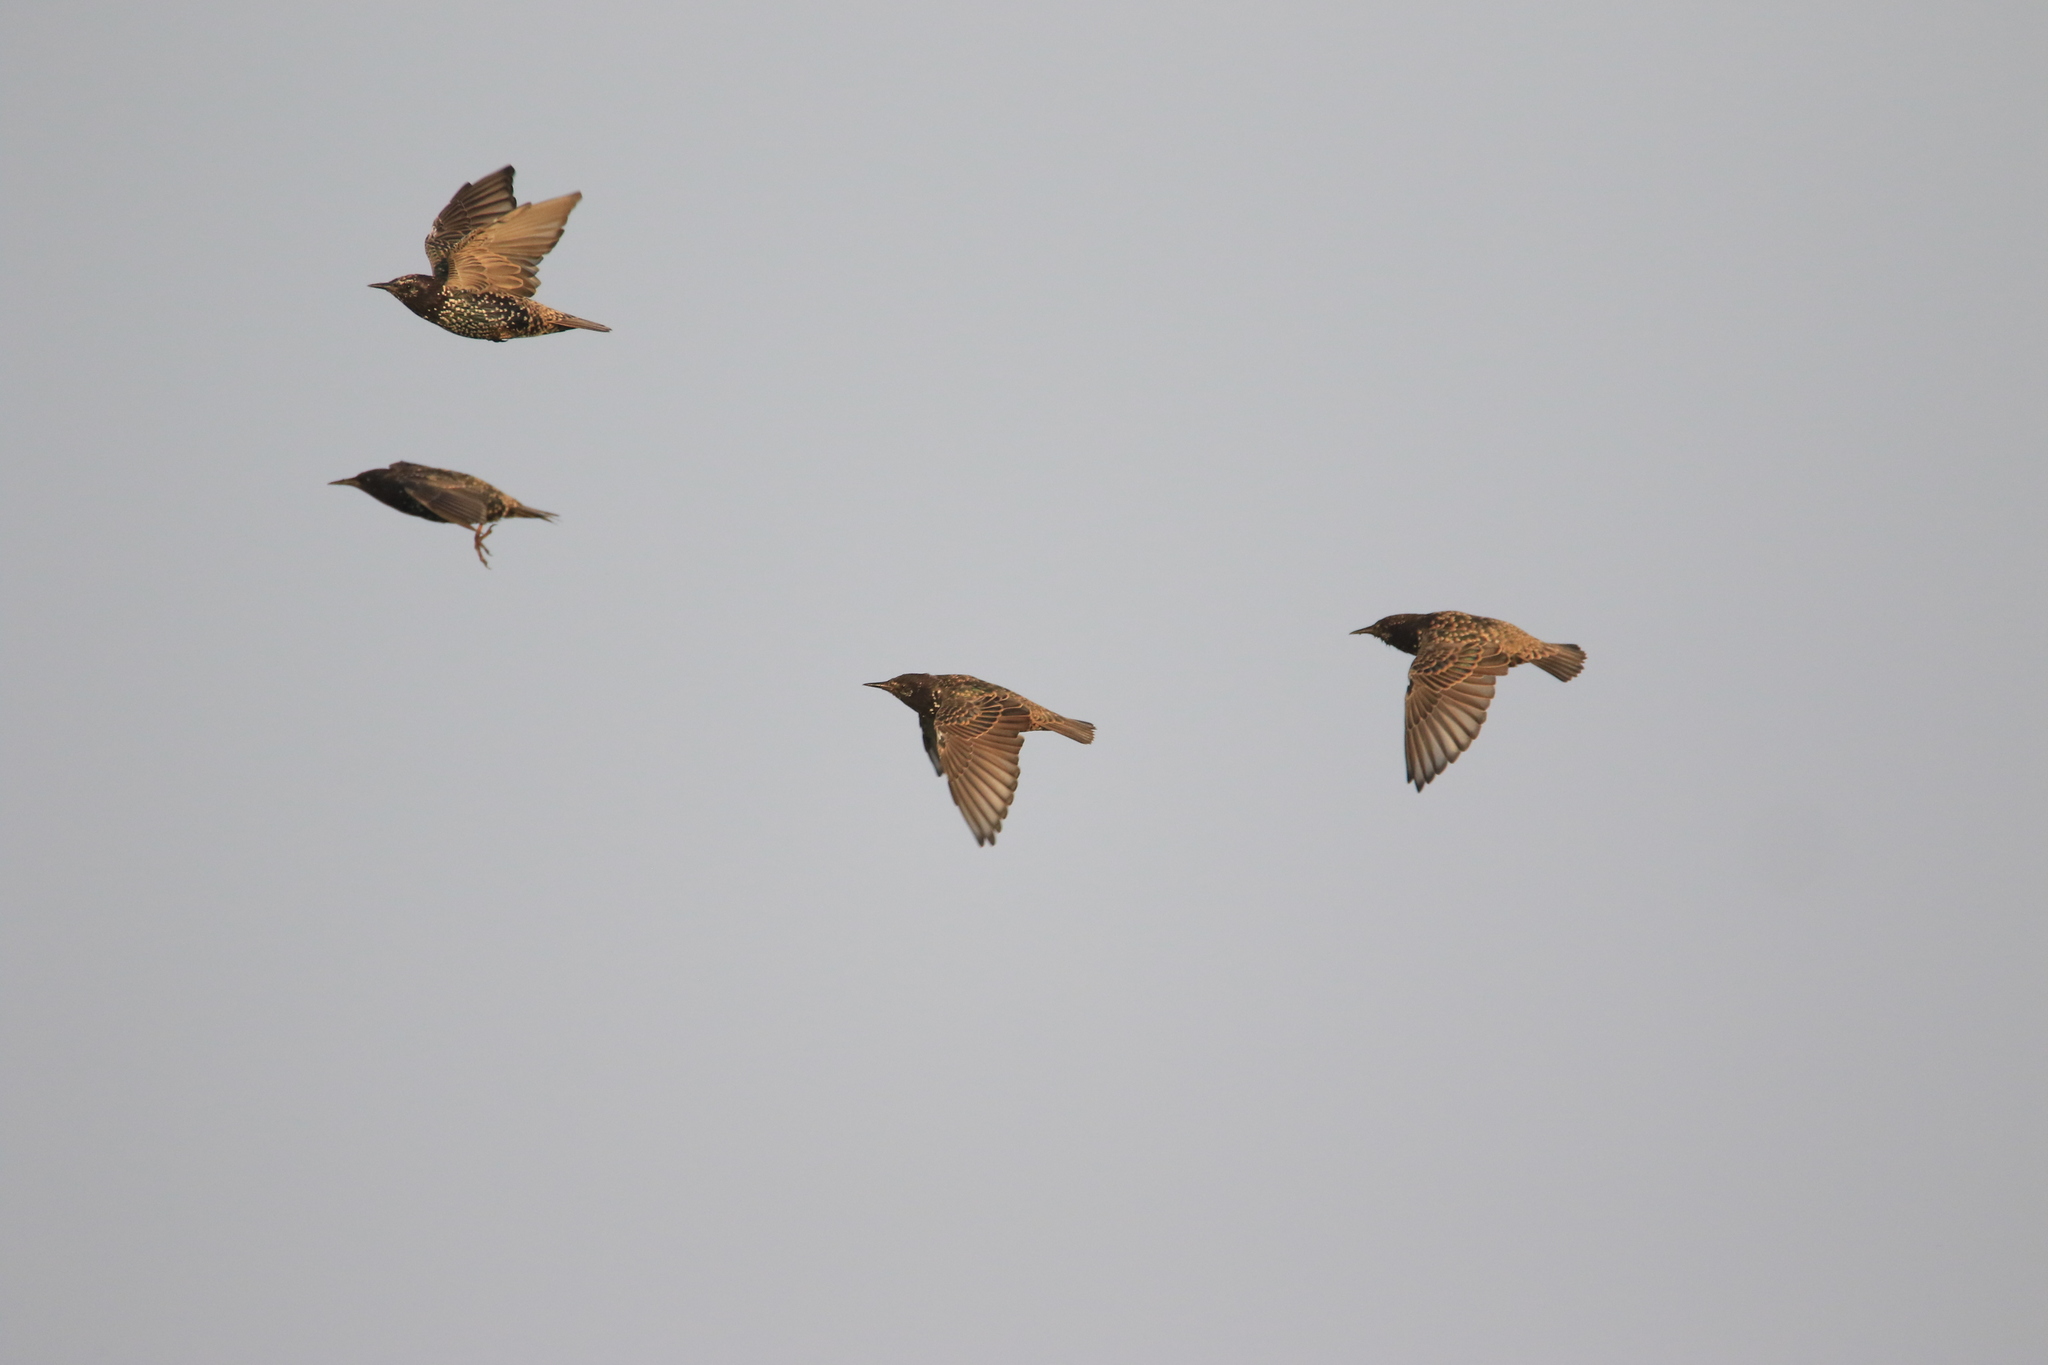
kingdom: Animalia
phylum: Chordata
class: Aves
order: Passeriformes
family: Sturnidae
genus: Sturnus
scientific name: Sturnus vulgaris
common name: Common starling
